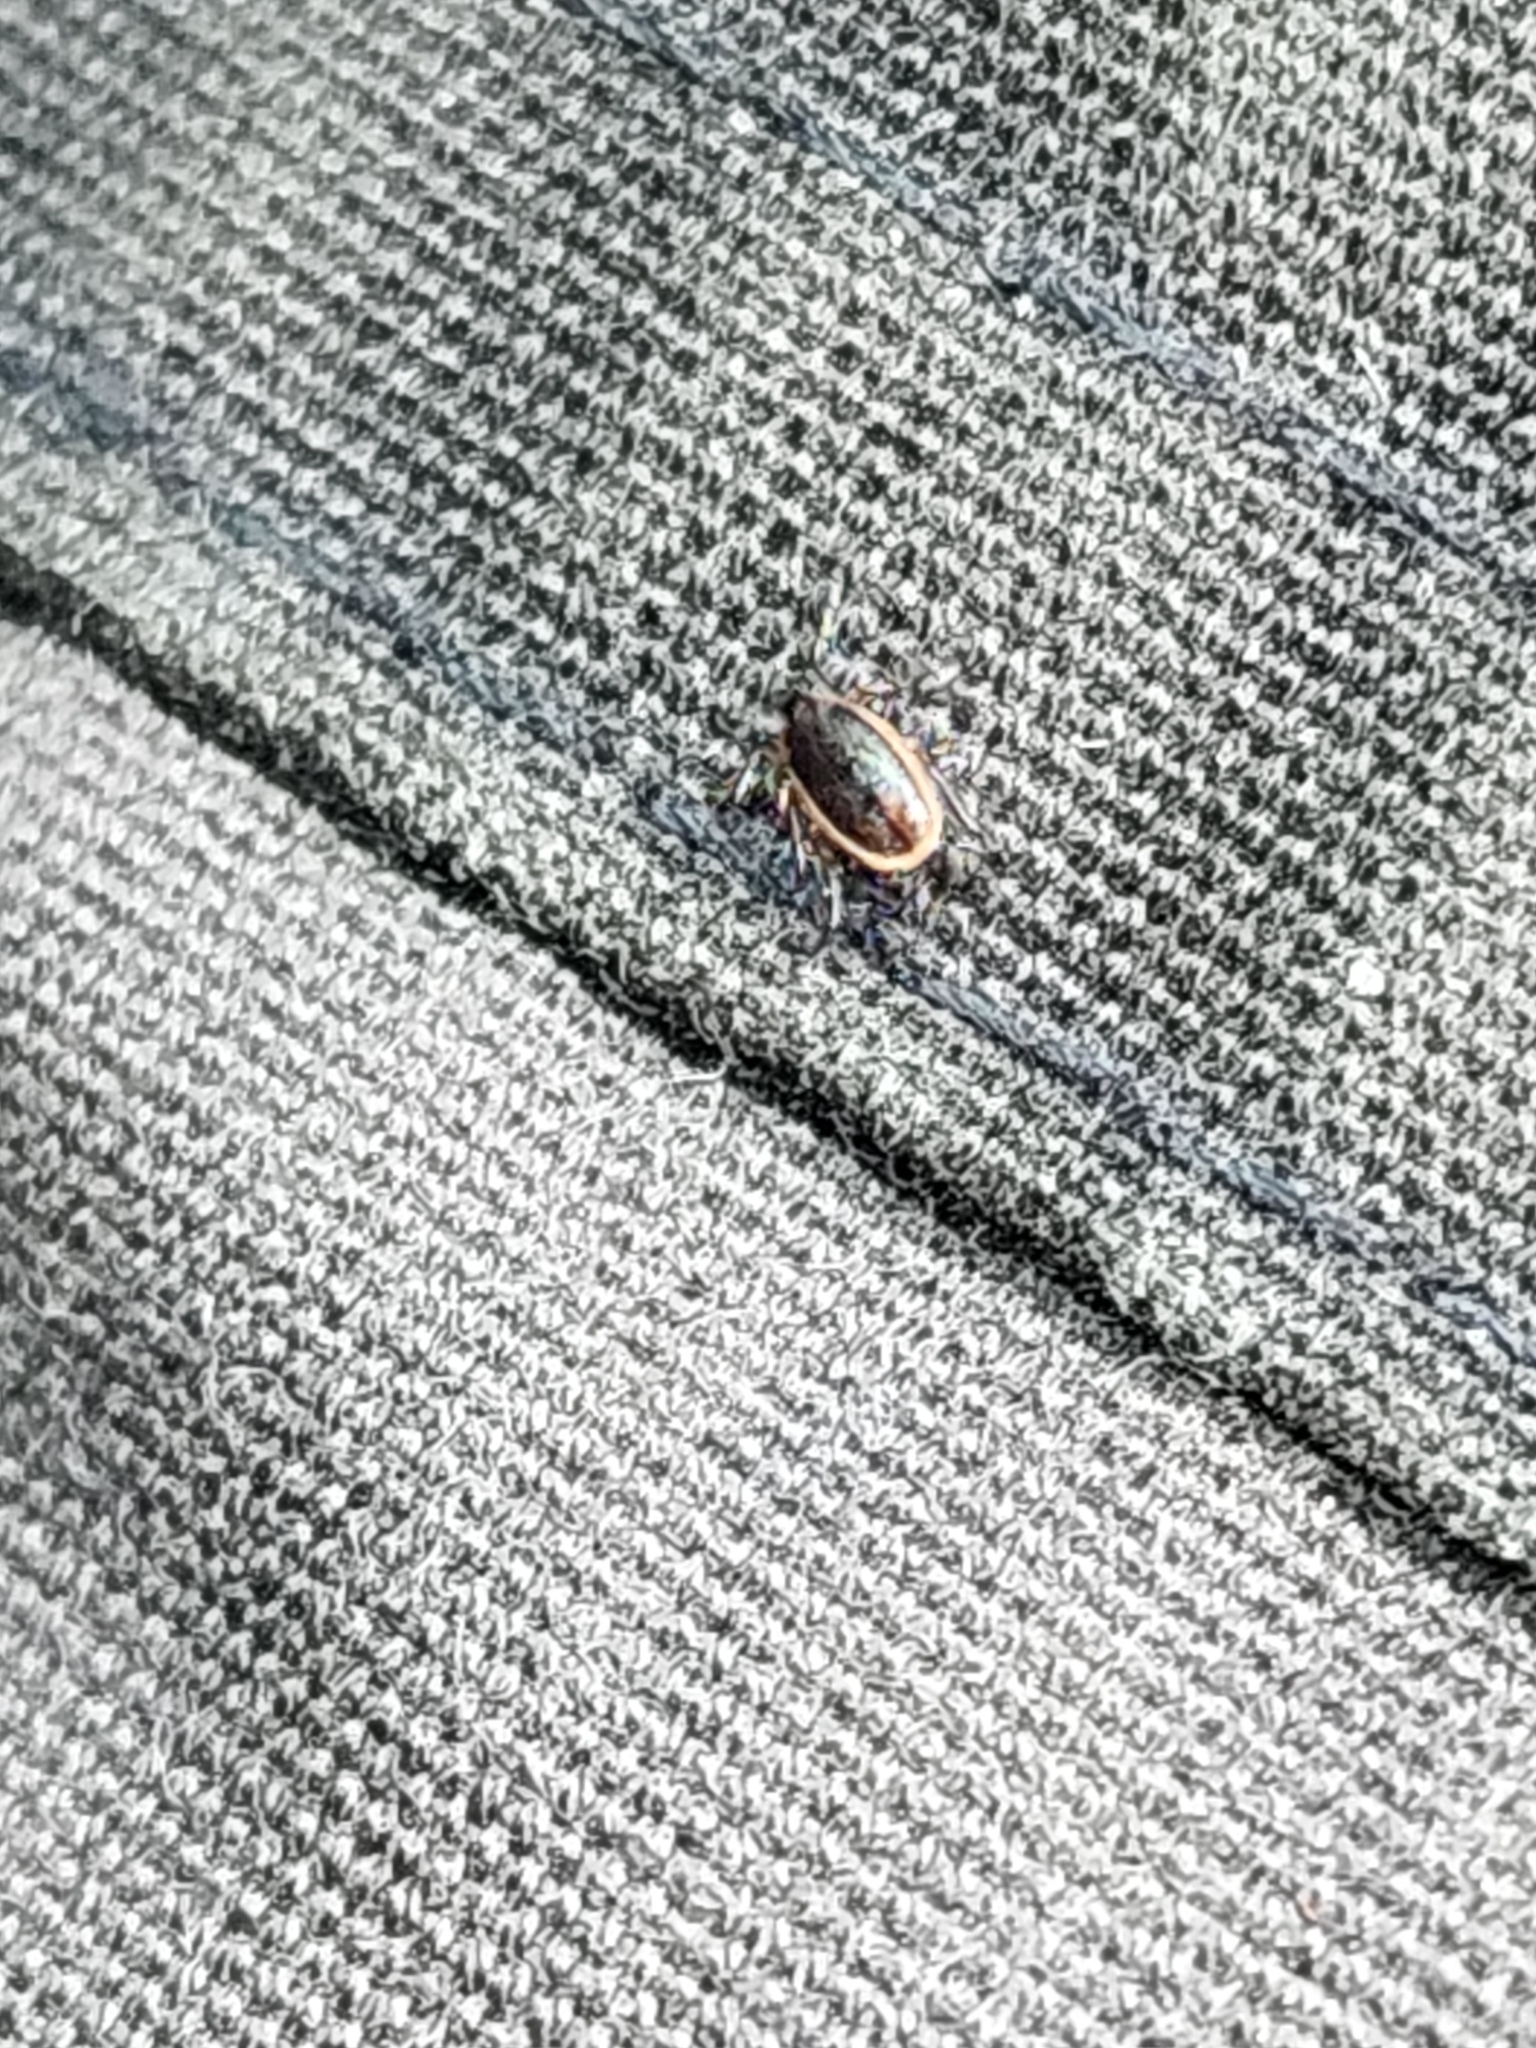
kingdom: Animalia
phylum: Arthropoda
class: Arachnida
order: Ixodida
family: Ixodidae
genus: Ixodes
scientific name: Ixodes scapularis
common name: Black legged tick
